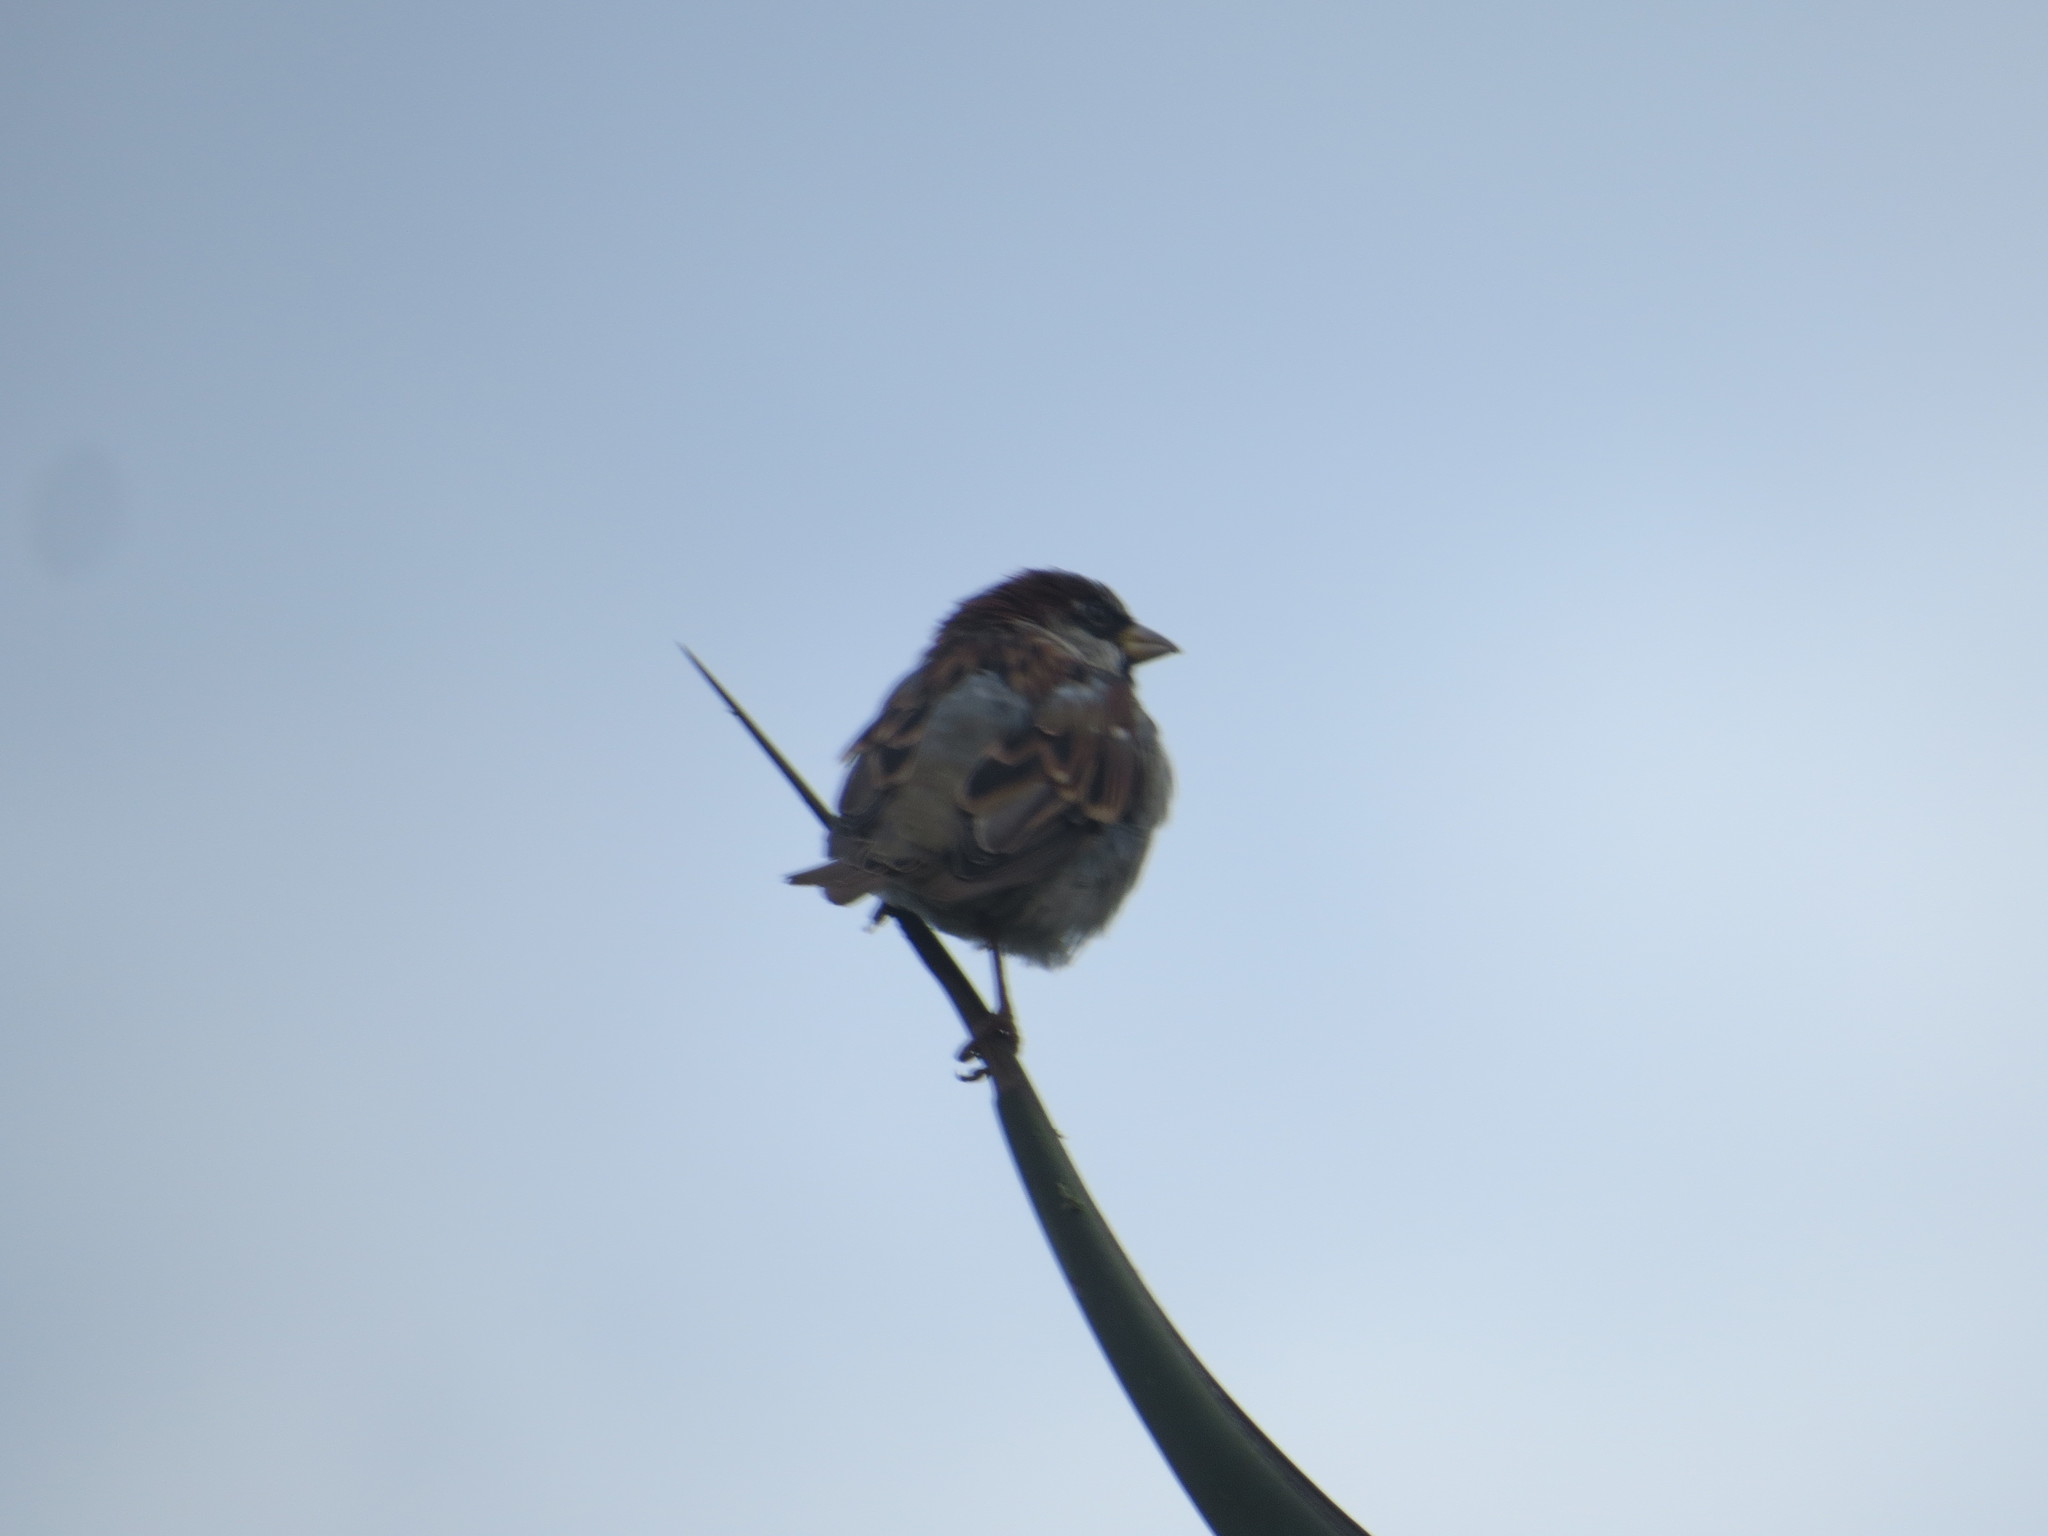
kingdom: Animalia
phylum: Chordata
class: Aves
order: Passeriformes
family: Passeridae
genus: Passer
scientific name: Passer domesticus
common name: House sparrow
